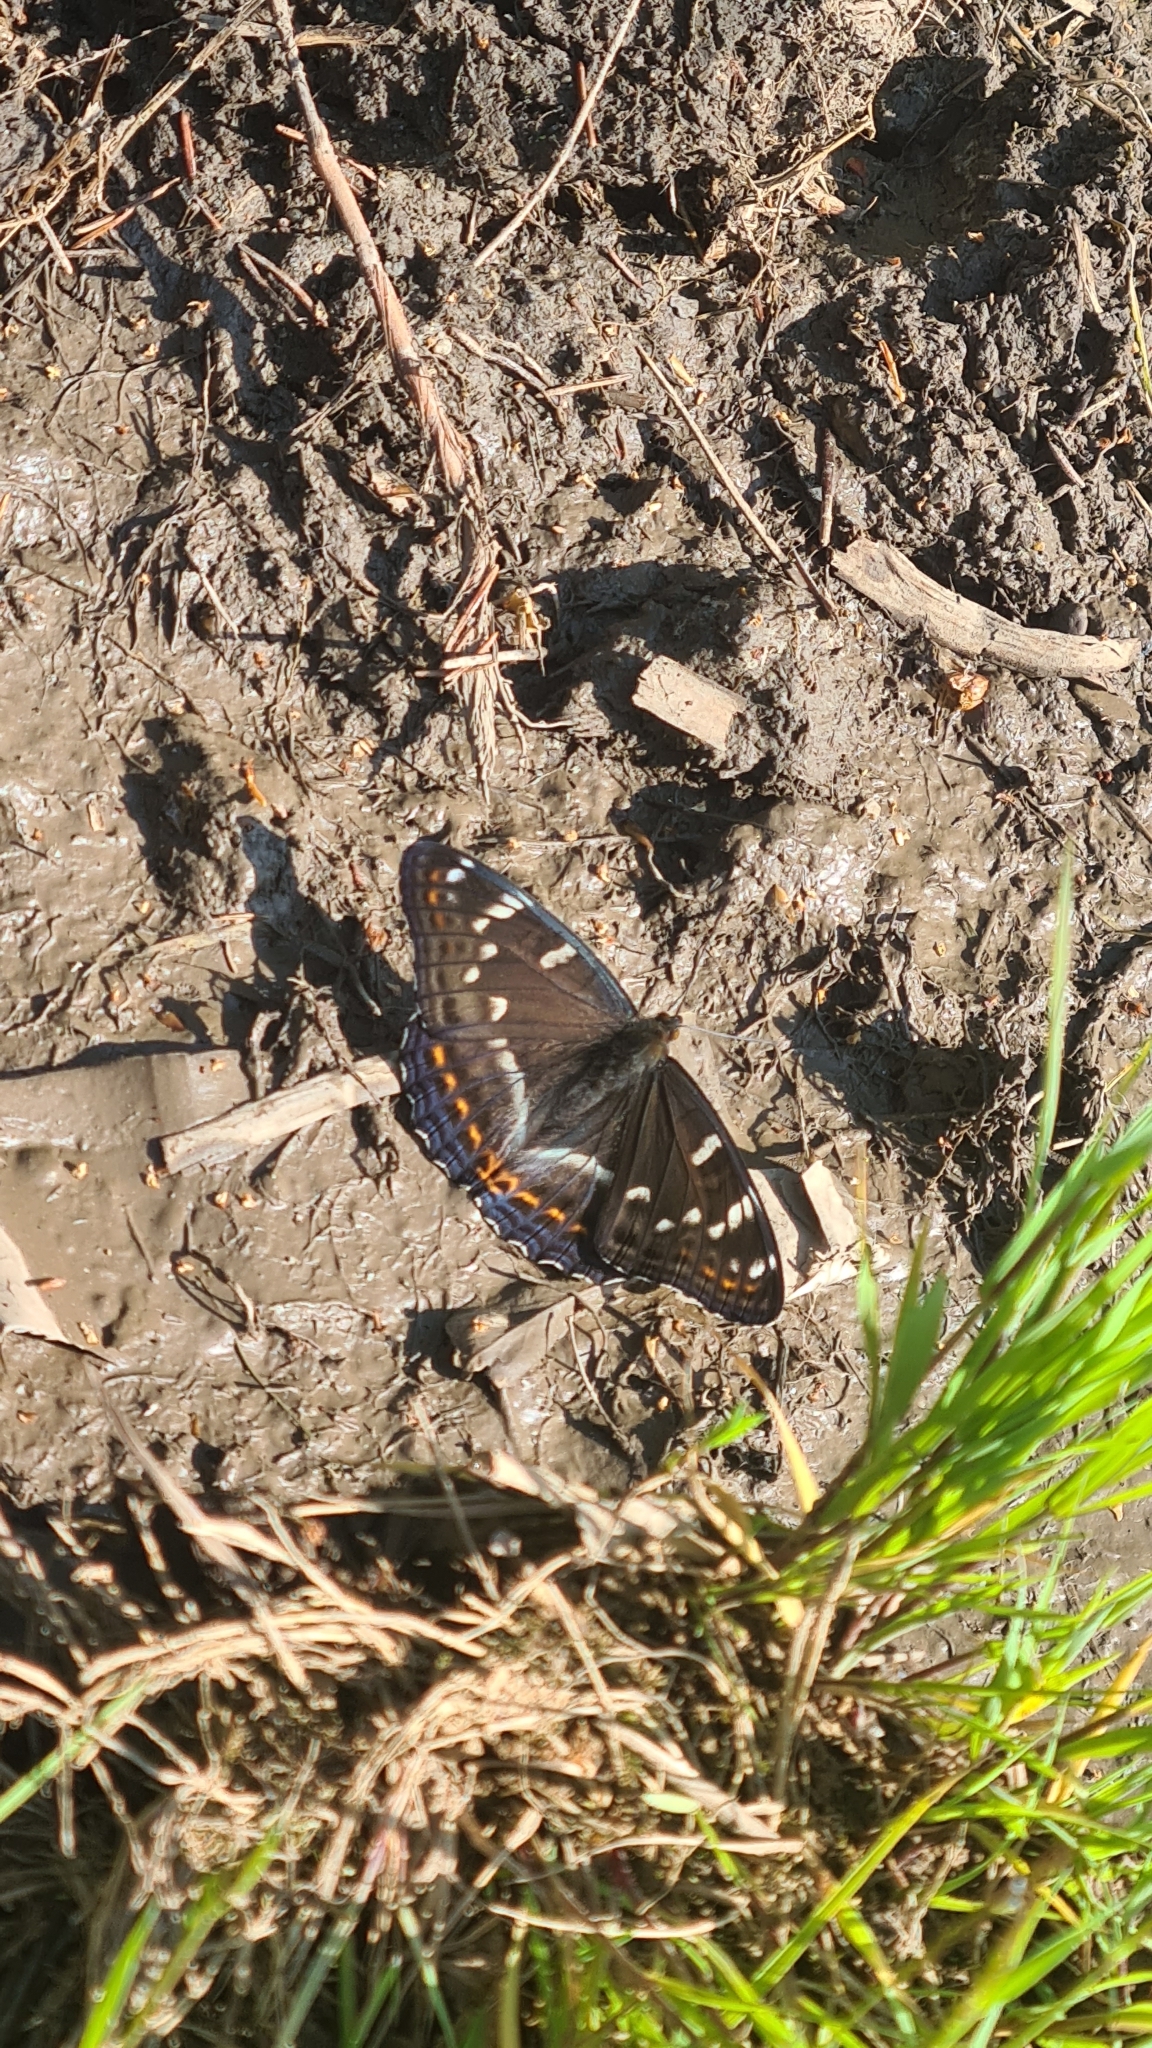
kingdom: Animalia
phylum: Arthropoda
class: Insecta
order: Lepidoptera
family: Nymphalidae
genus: Limenitis
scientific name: Limenitis populi
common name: Poplar admiral
